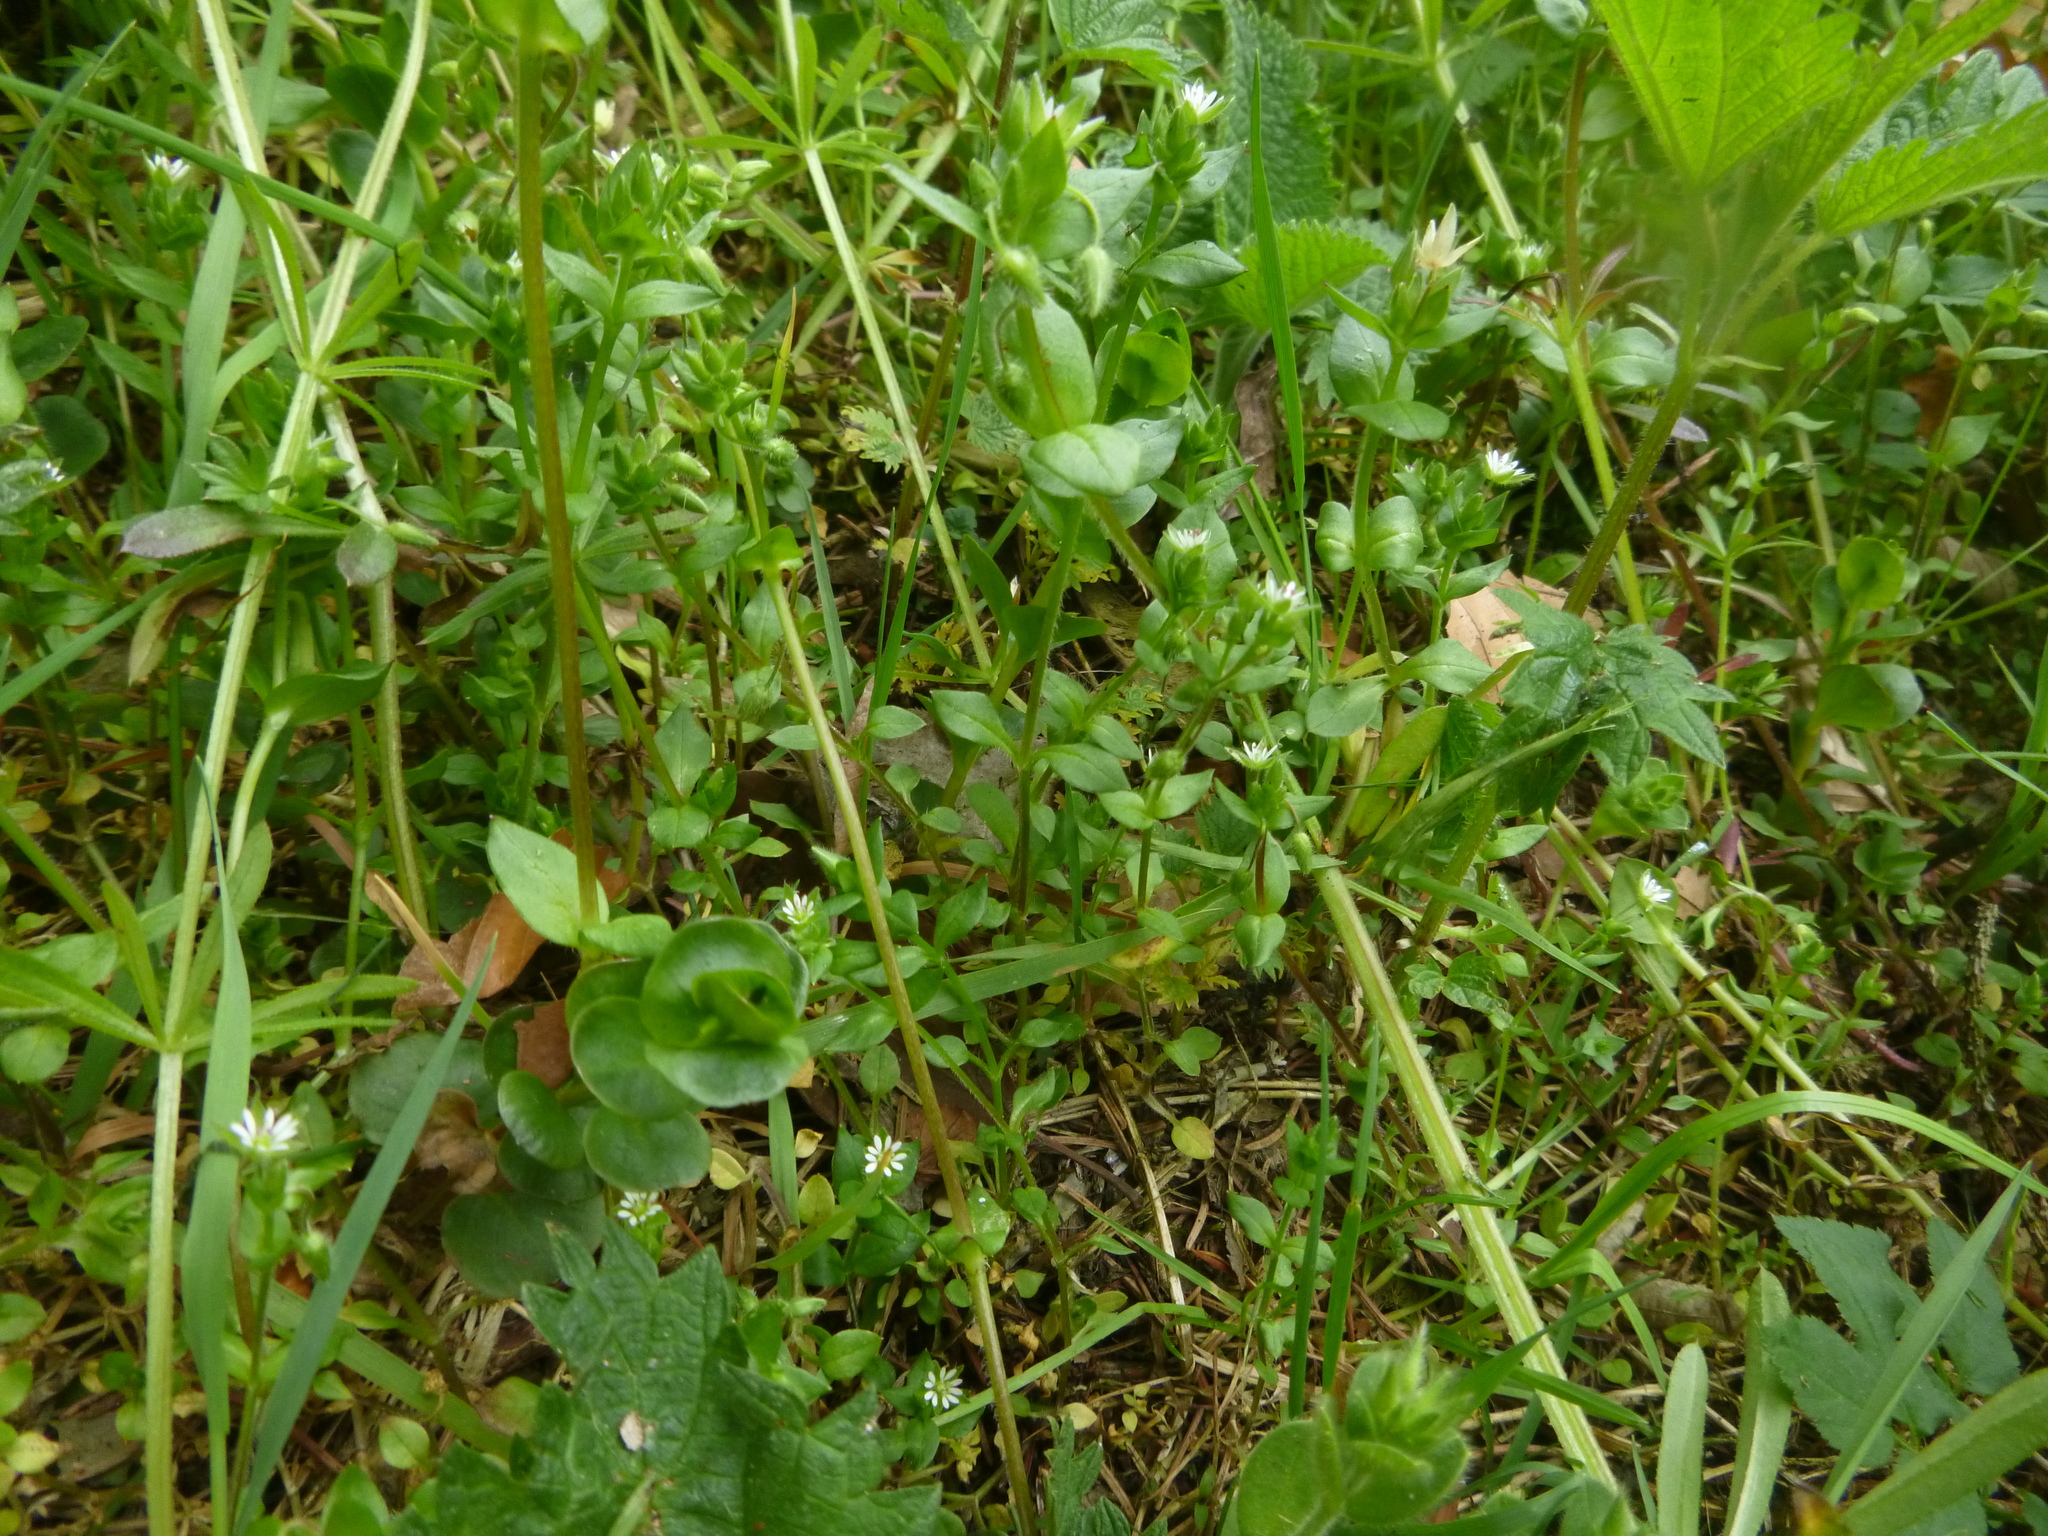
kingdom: Plantae
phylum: Tracheophyta
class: Magnoliopsida
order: Caryophyllales
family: Caryophyllaceae
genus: Stellaria
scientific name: Stellaria media
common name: Common chickweed
